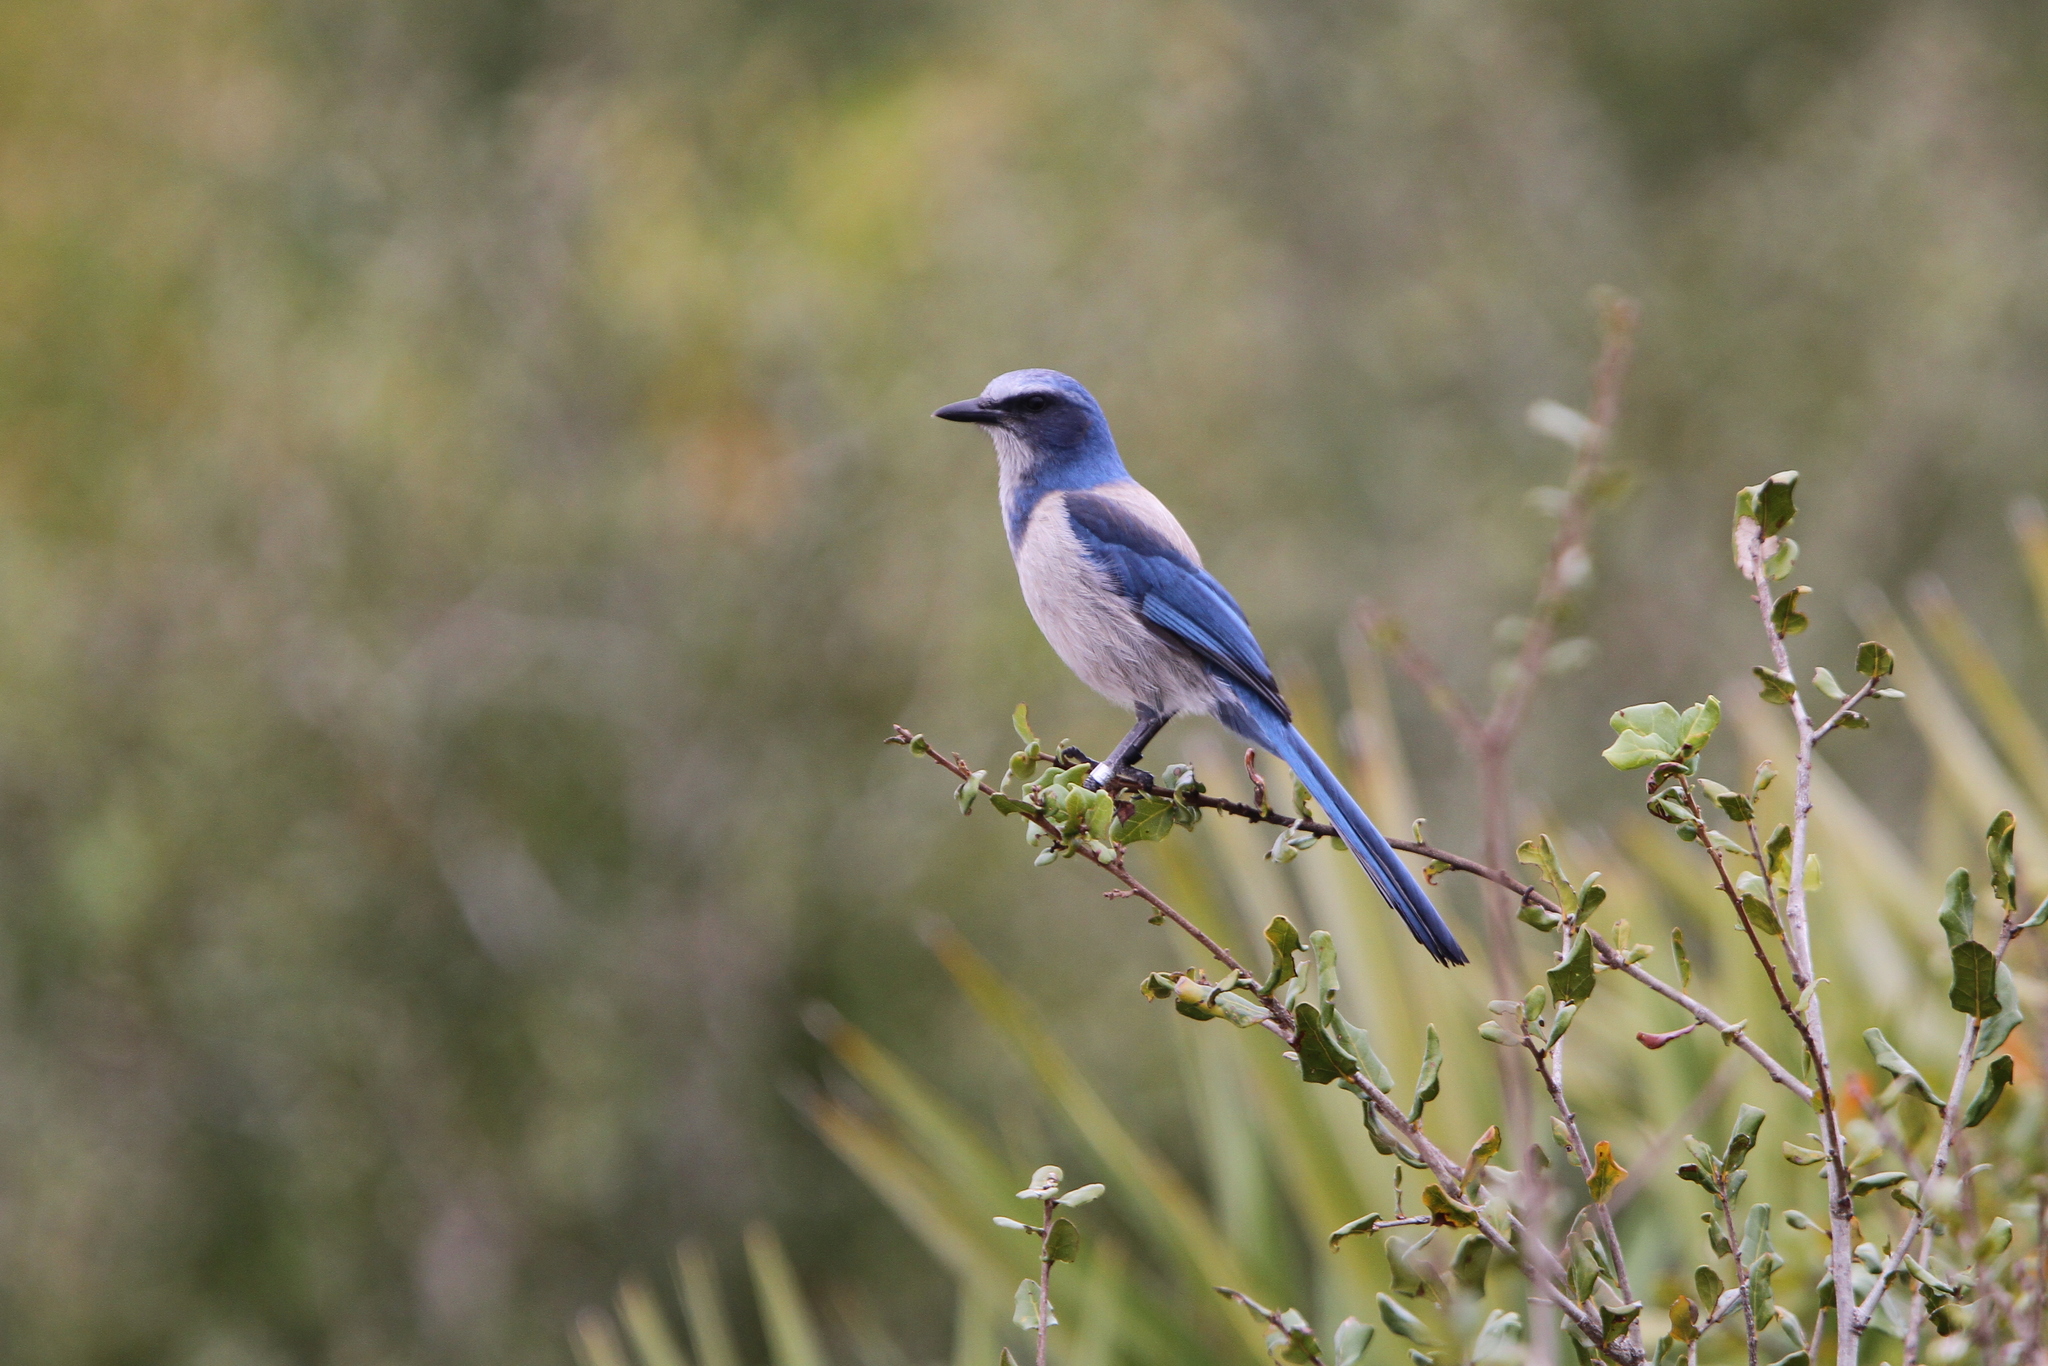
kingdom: Animalia
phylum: Chordata
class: Aves
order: Passeriformes
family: Corvidae
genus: Aphelocoma
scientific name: Aphelocoma coerulescens
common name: Florida scrub jay
